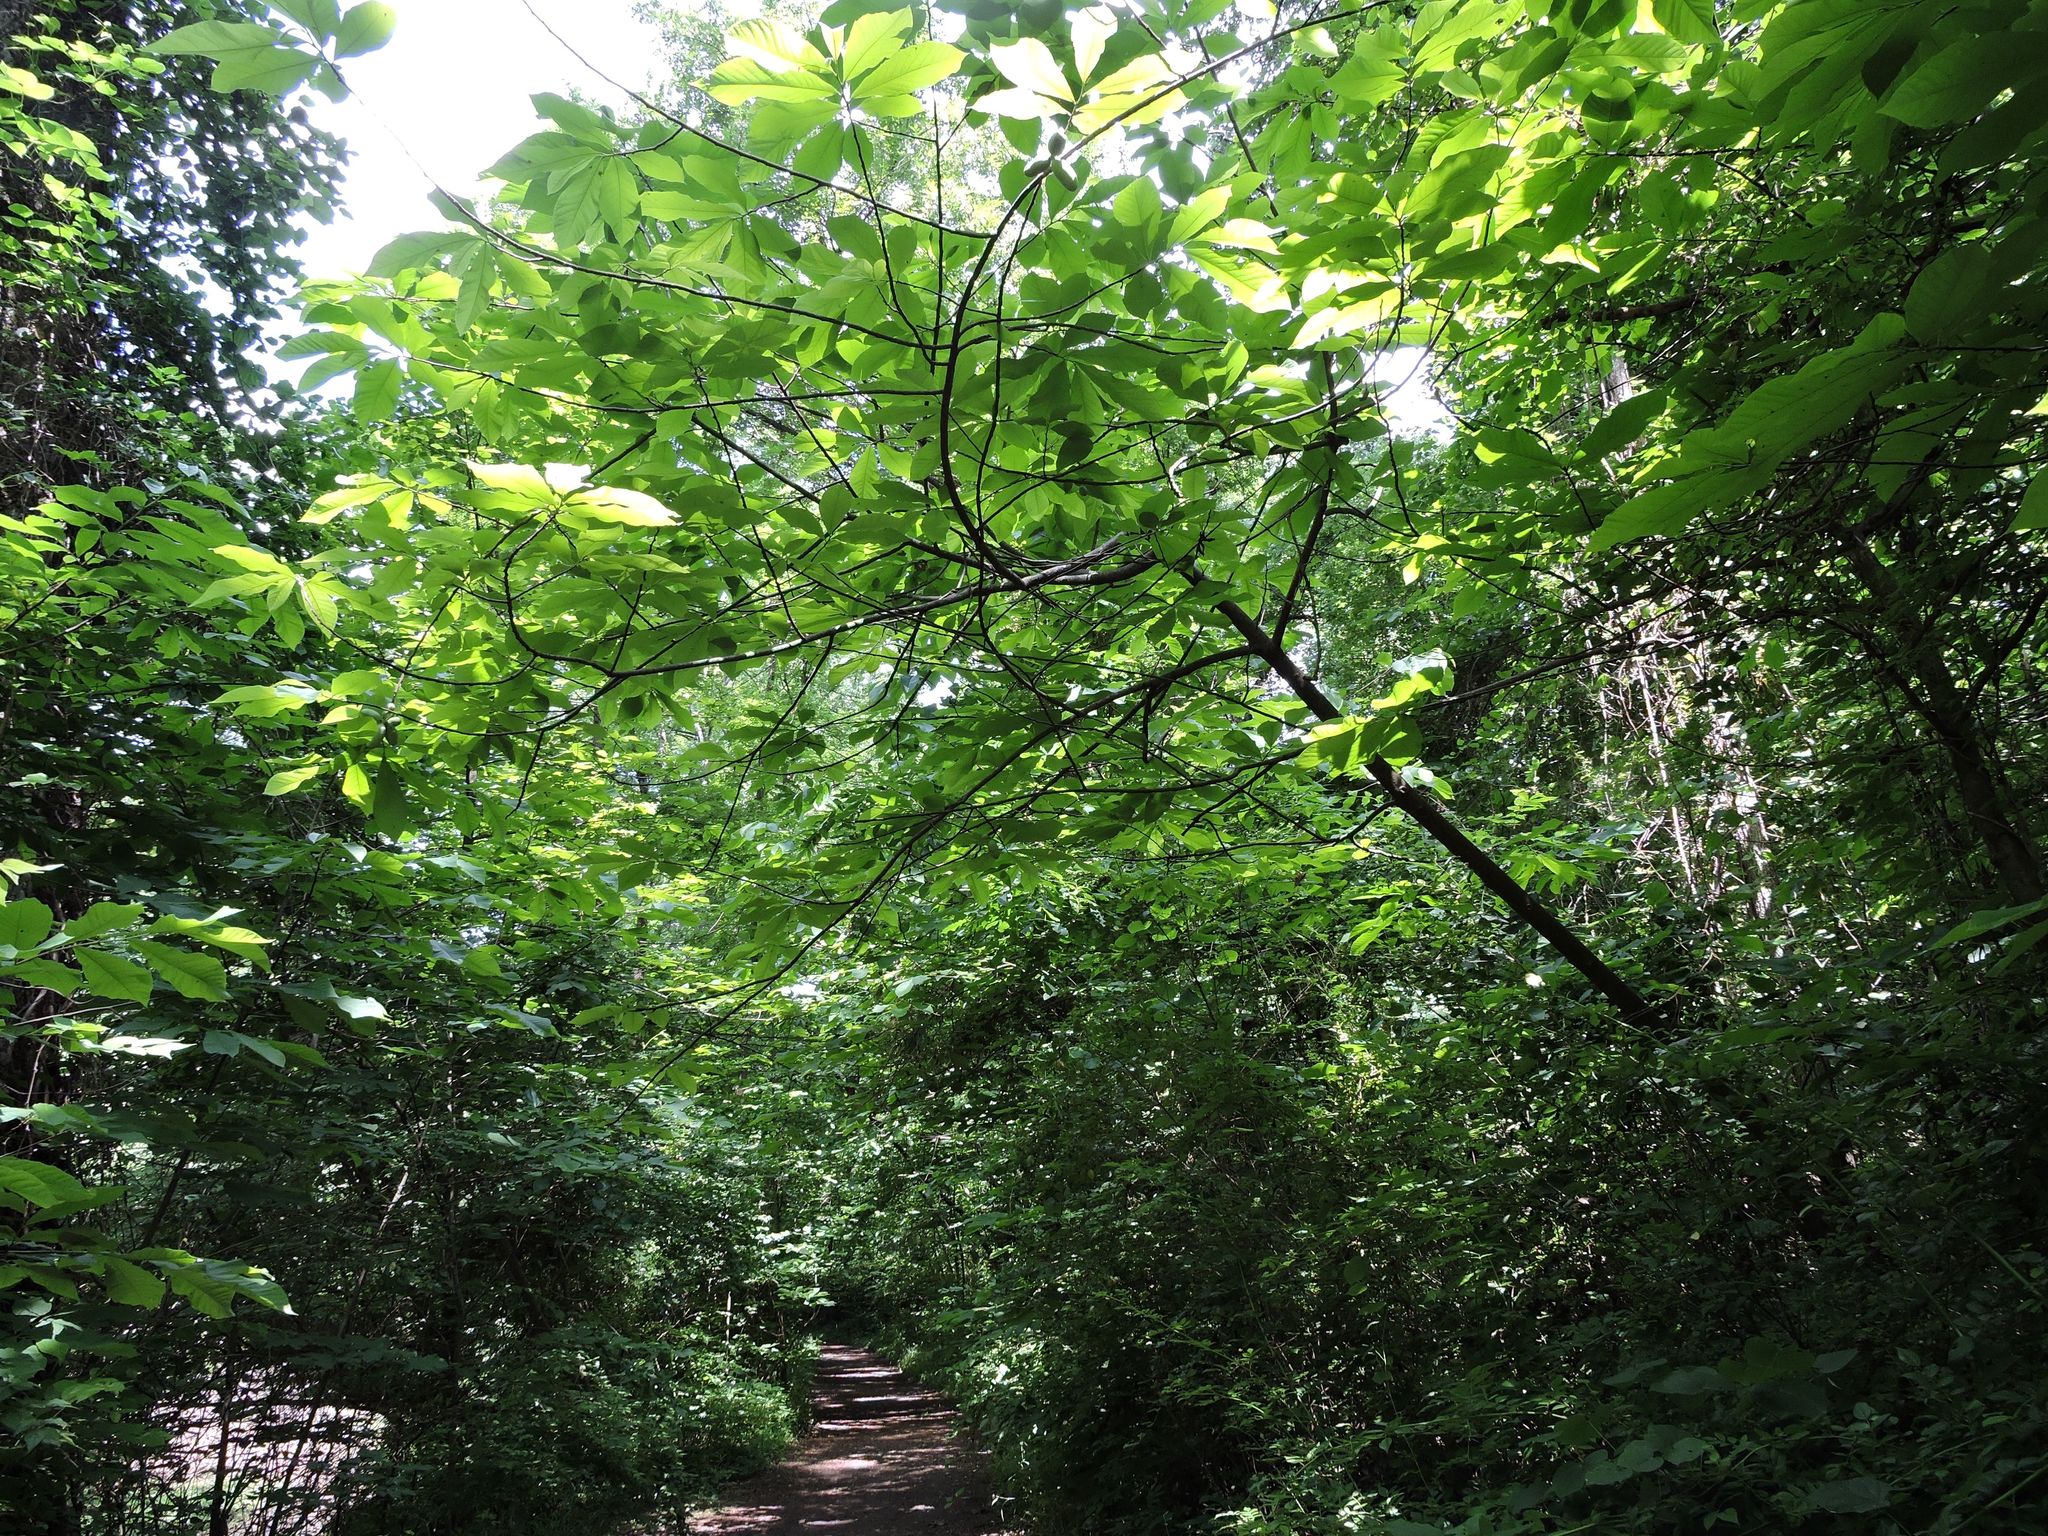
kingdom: Plantae
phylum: Tracheophyta
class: Magnoliopsida
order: Magnoliales
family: Annonaceae
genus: Asimina
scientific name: Asimina triloba
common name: Dog-banana
